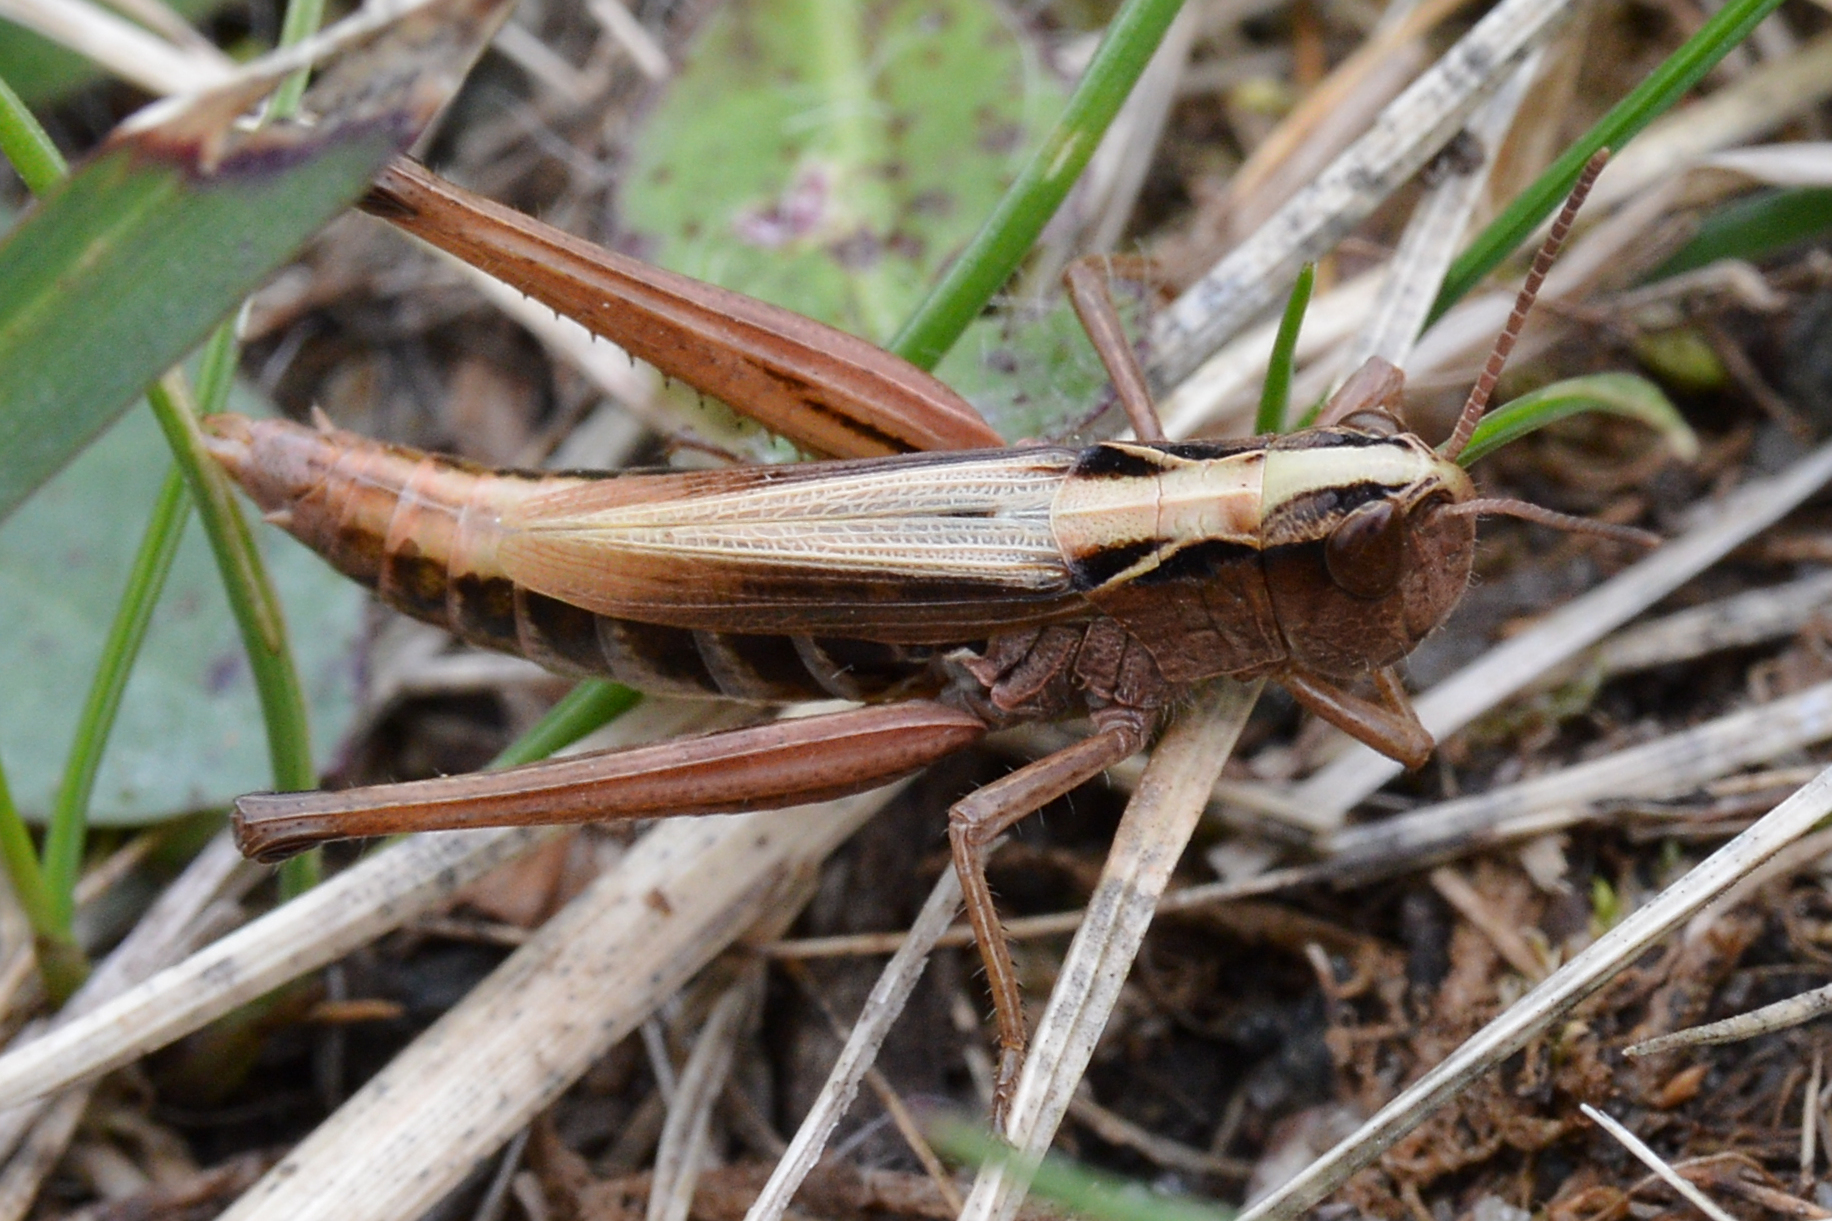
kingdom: Animalia
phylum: Arthropoda
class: Insecta
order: Orthoptera
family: Acrididae
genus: Pseudochorthippus
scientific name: Pseudochorthippus curtipennis
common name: Marsh meadow grasshopper
